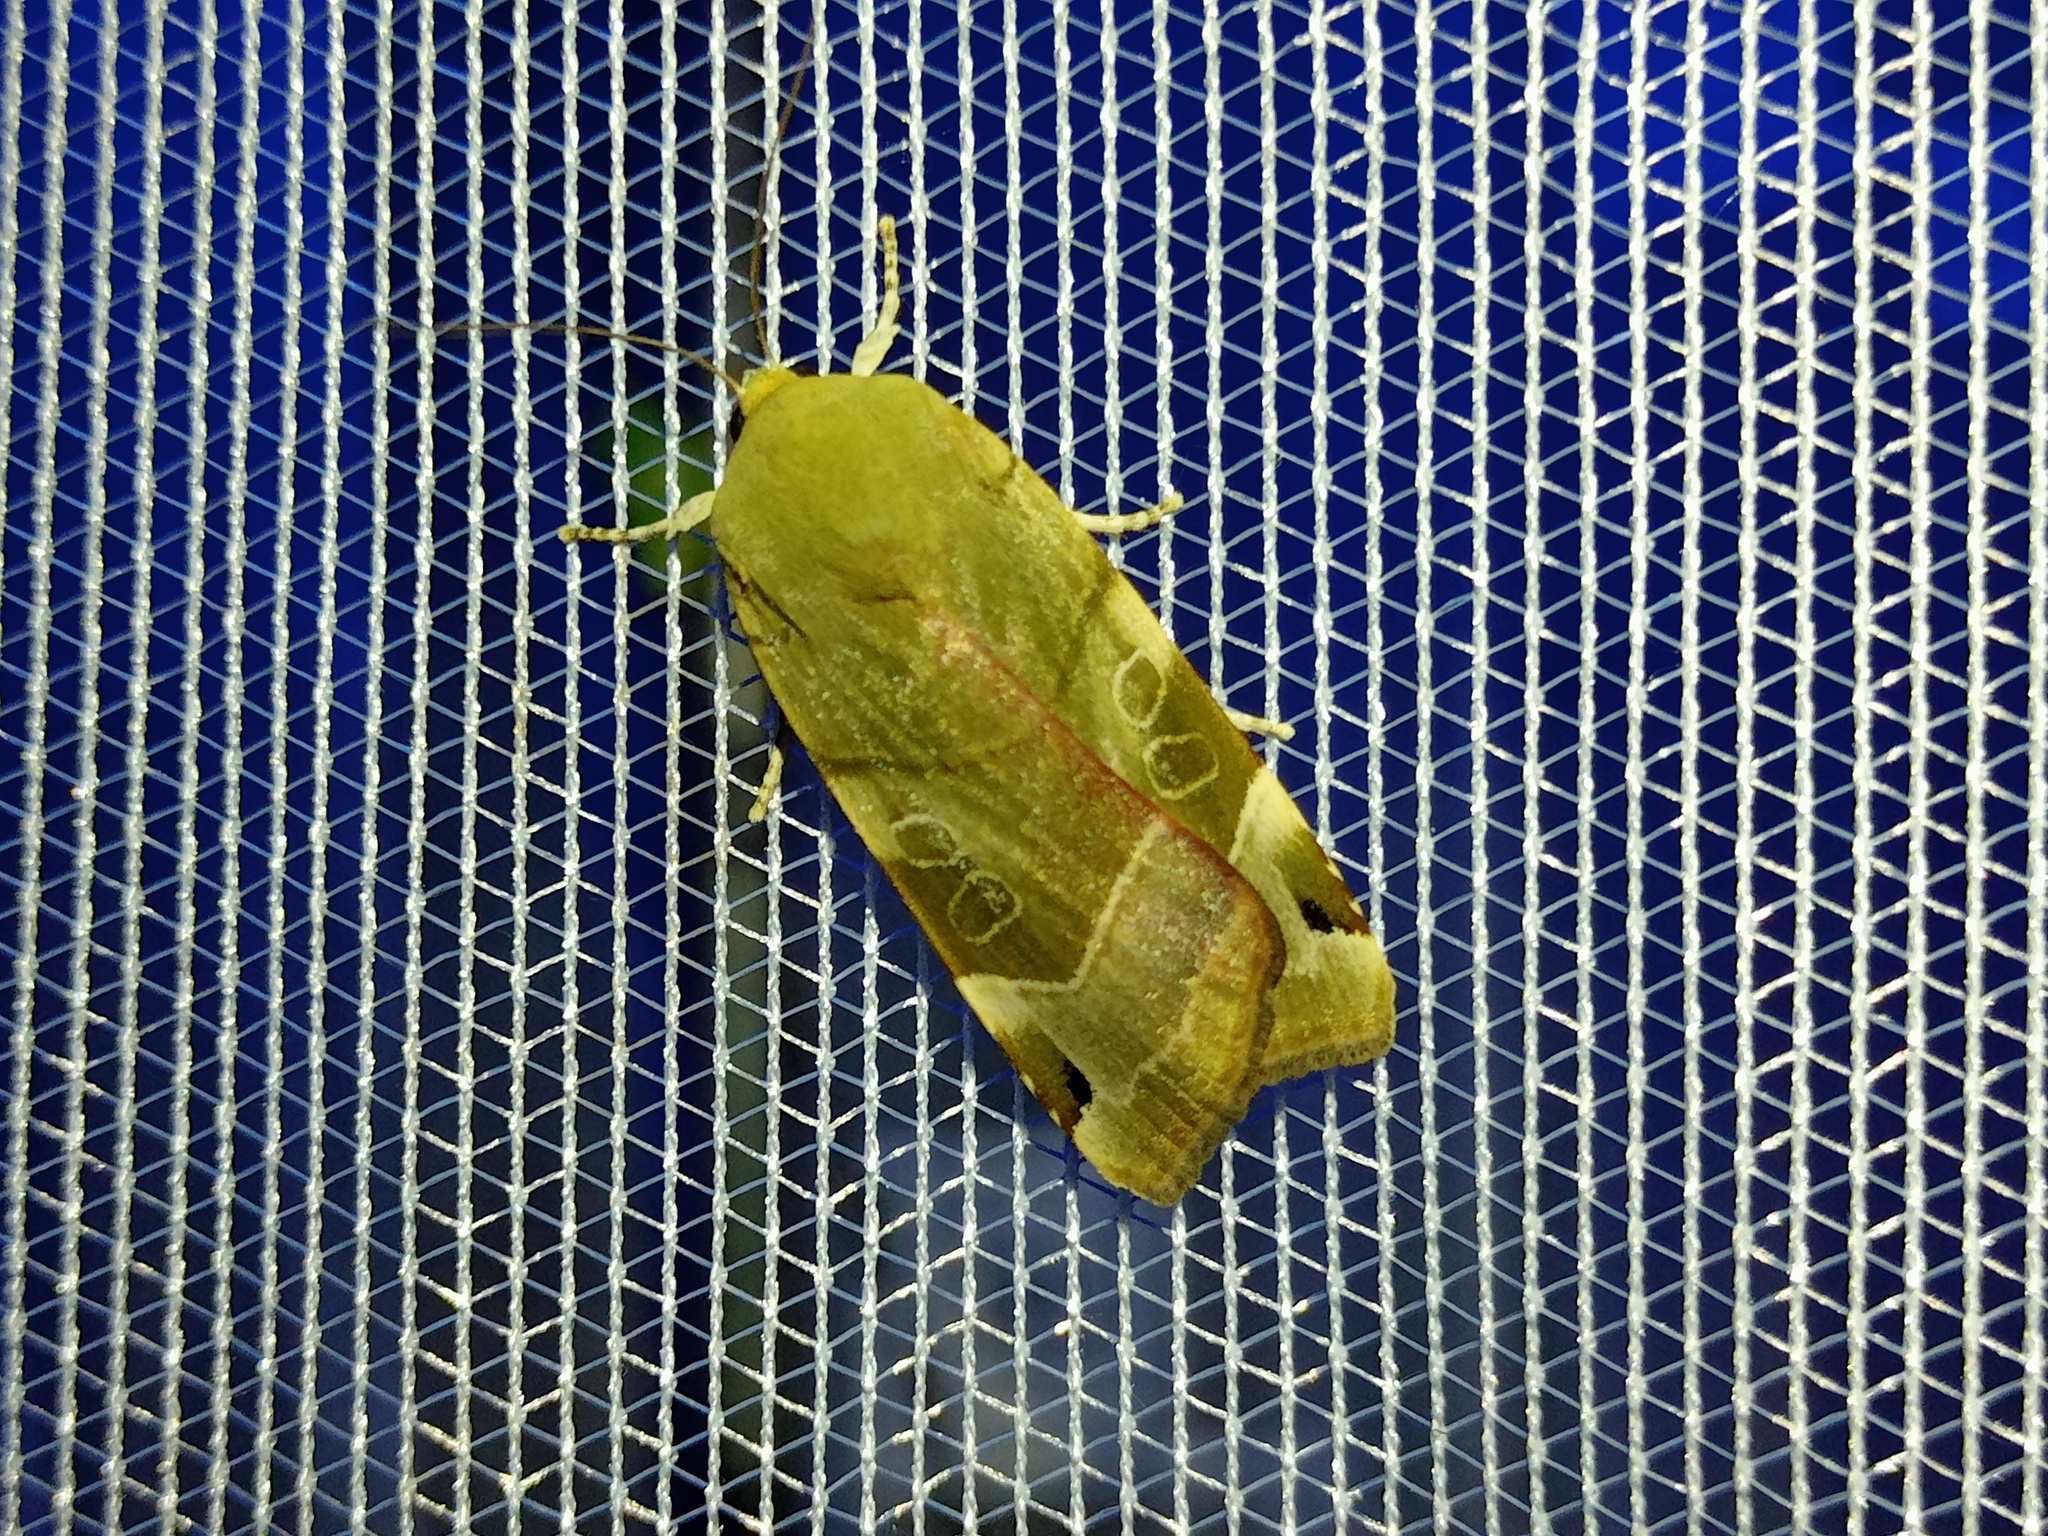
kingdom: Animalia
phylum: Arthropoda
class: Insecta
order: Lepidoptera
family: Noctuidae
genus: Noctua
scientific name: Noctua fimbriata
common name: Broad-bordered yellow underwing
